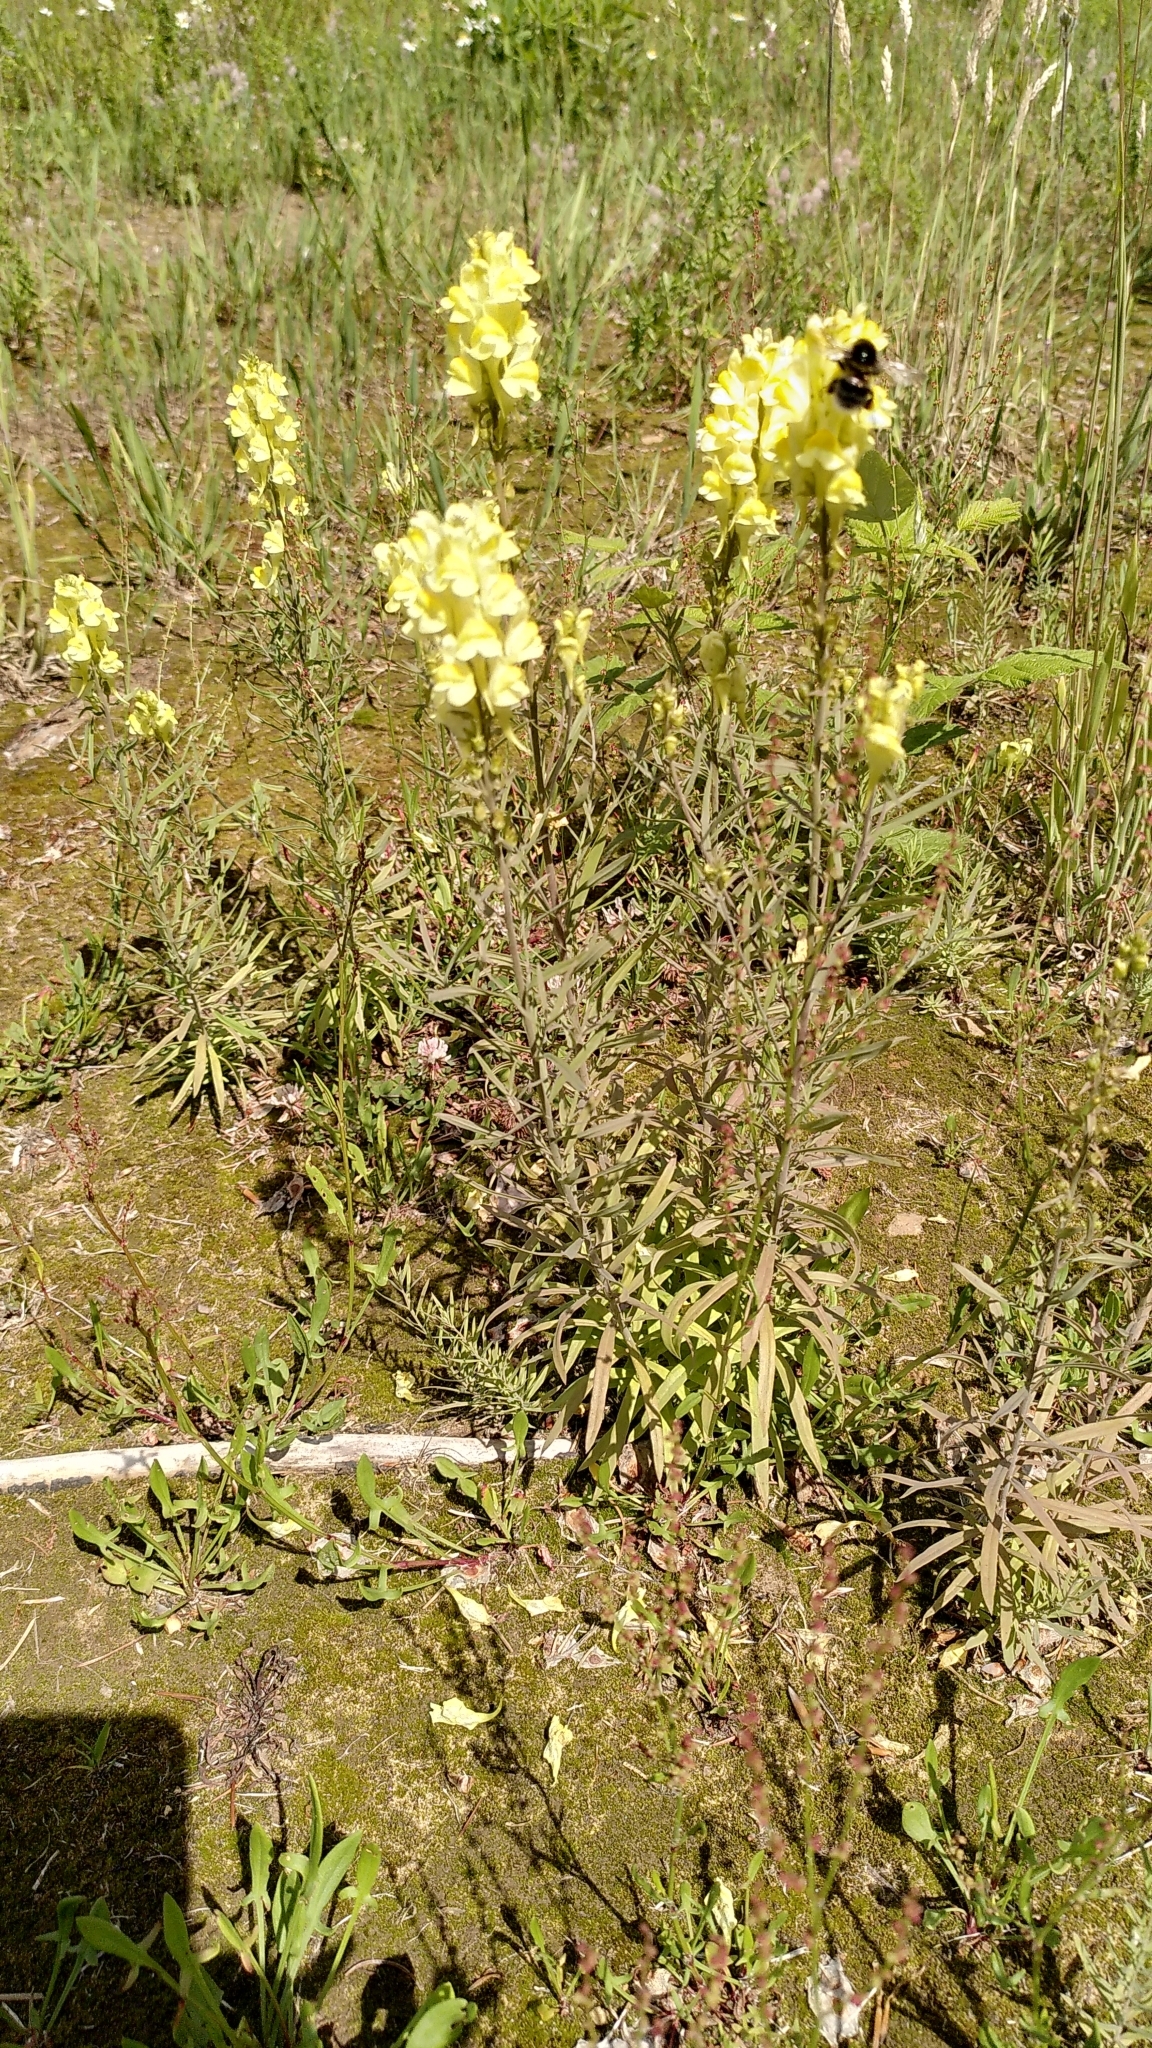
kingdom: Plantae
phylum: Tracheophyta
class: Magnoliopsida
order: Lamiales
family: Plantaginaceae
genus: Linaria
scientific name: Linaria vulgaris
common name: Butter and eggs
